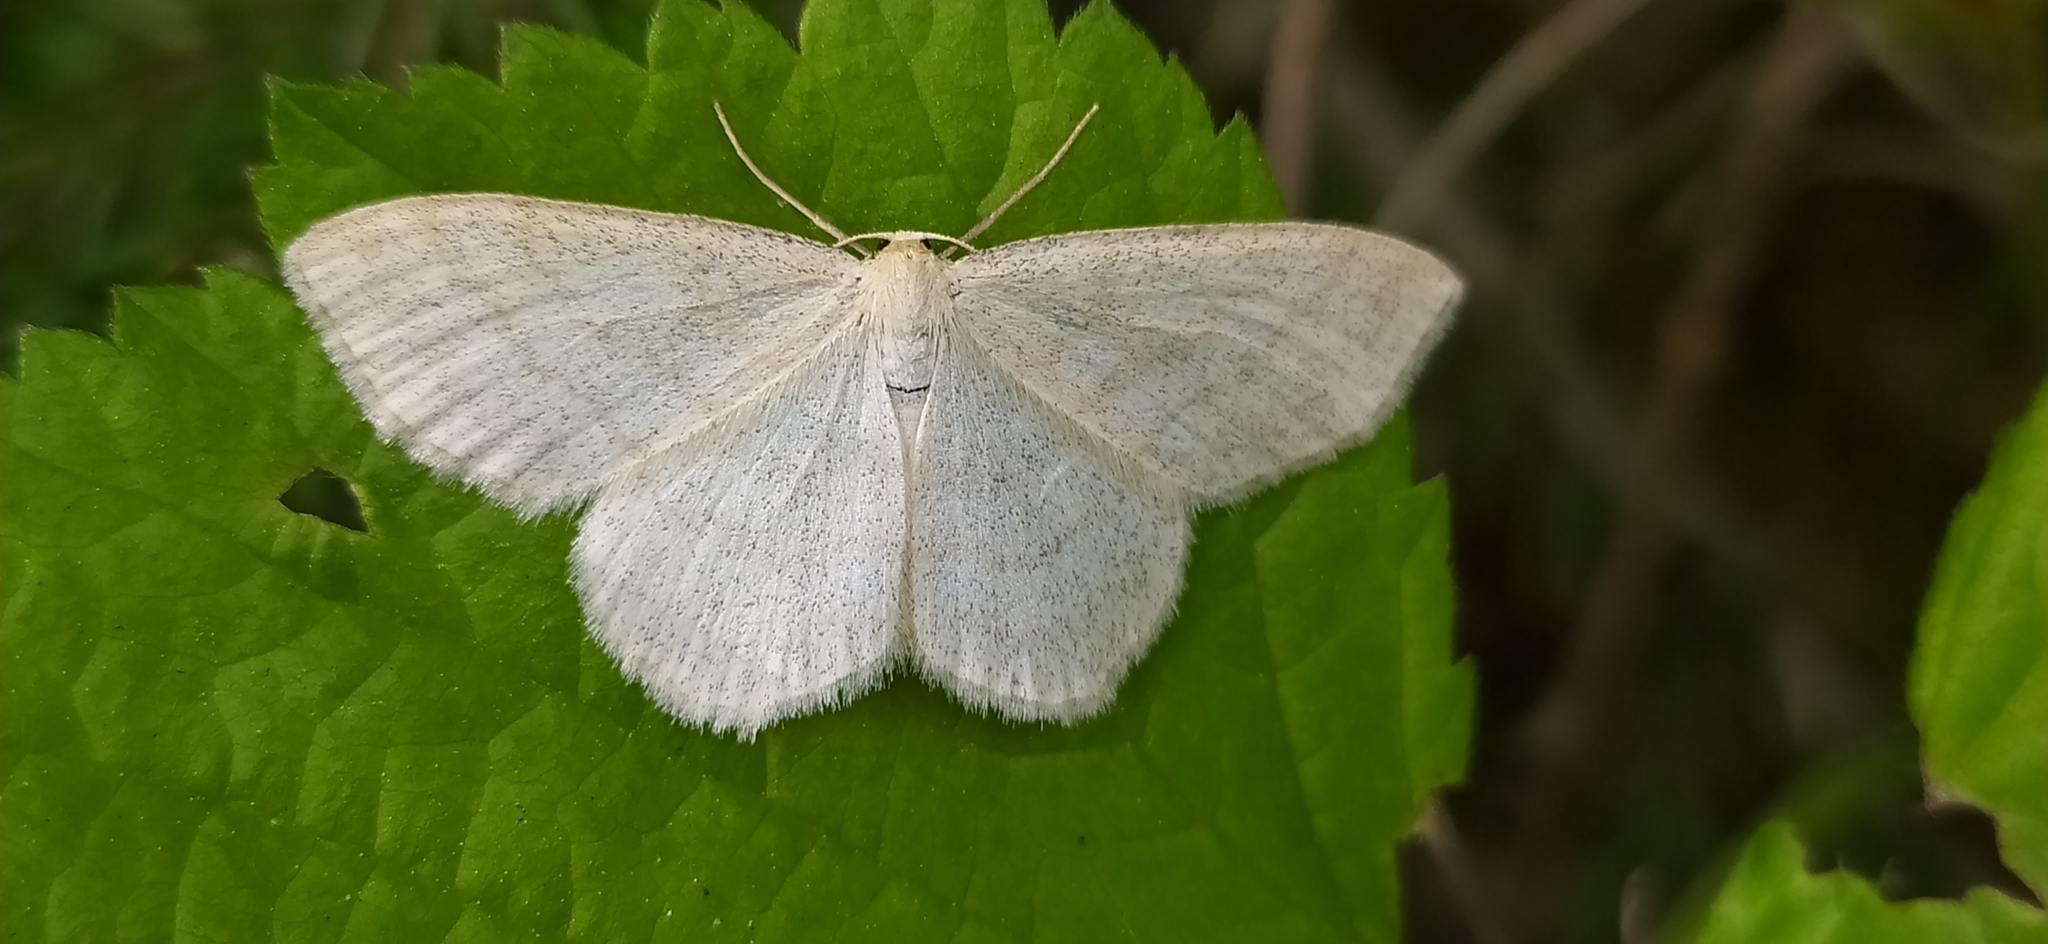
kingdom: Animalia
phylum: Arthropoda
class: Insecta
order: Lepidoptera
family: Geometridae
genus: Scopula
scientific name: Scopula ternata
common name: Smoky wave
